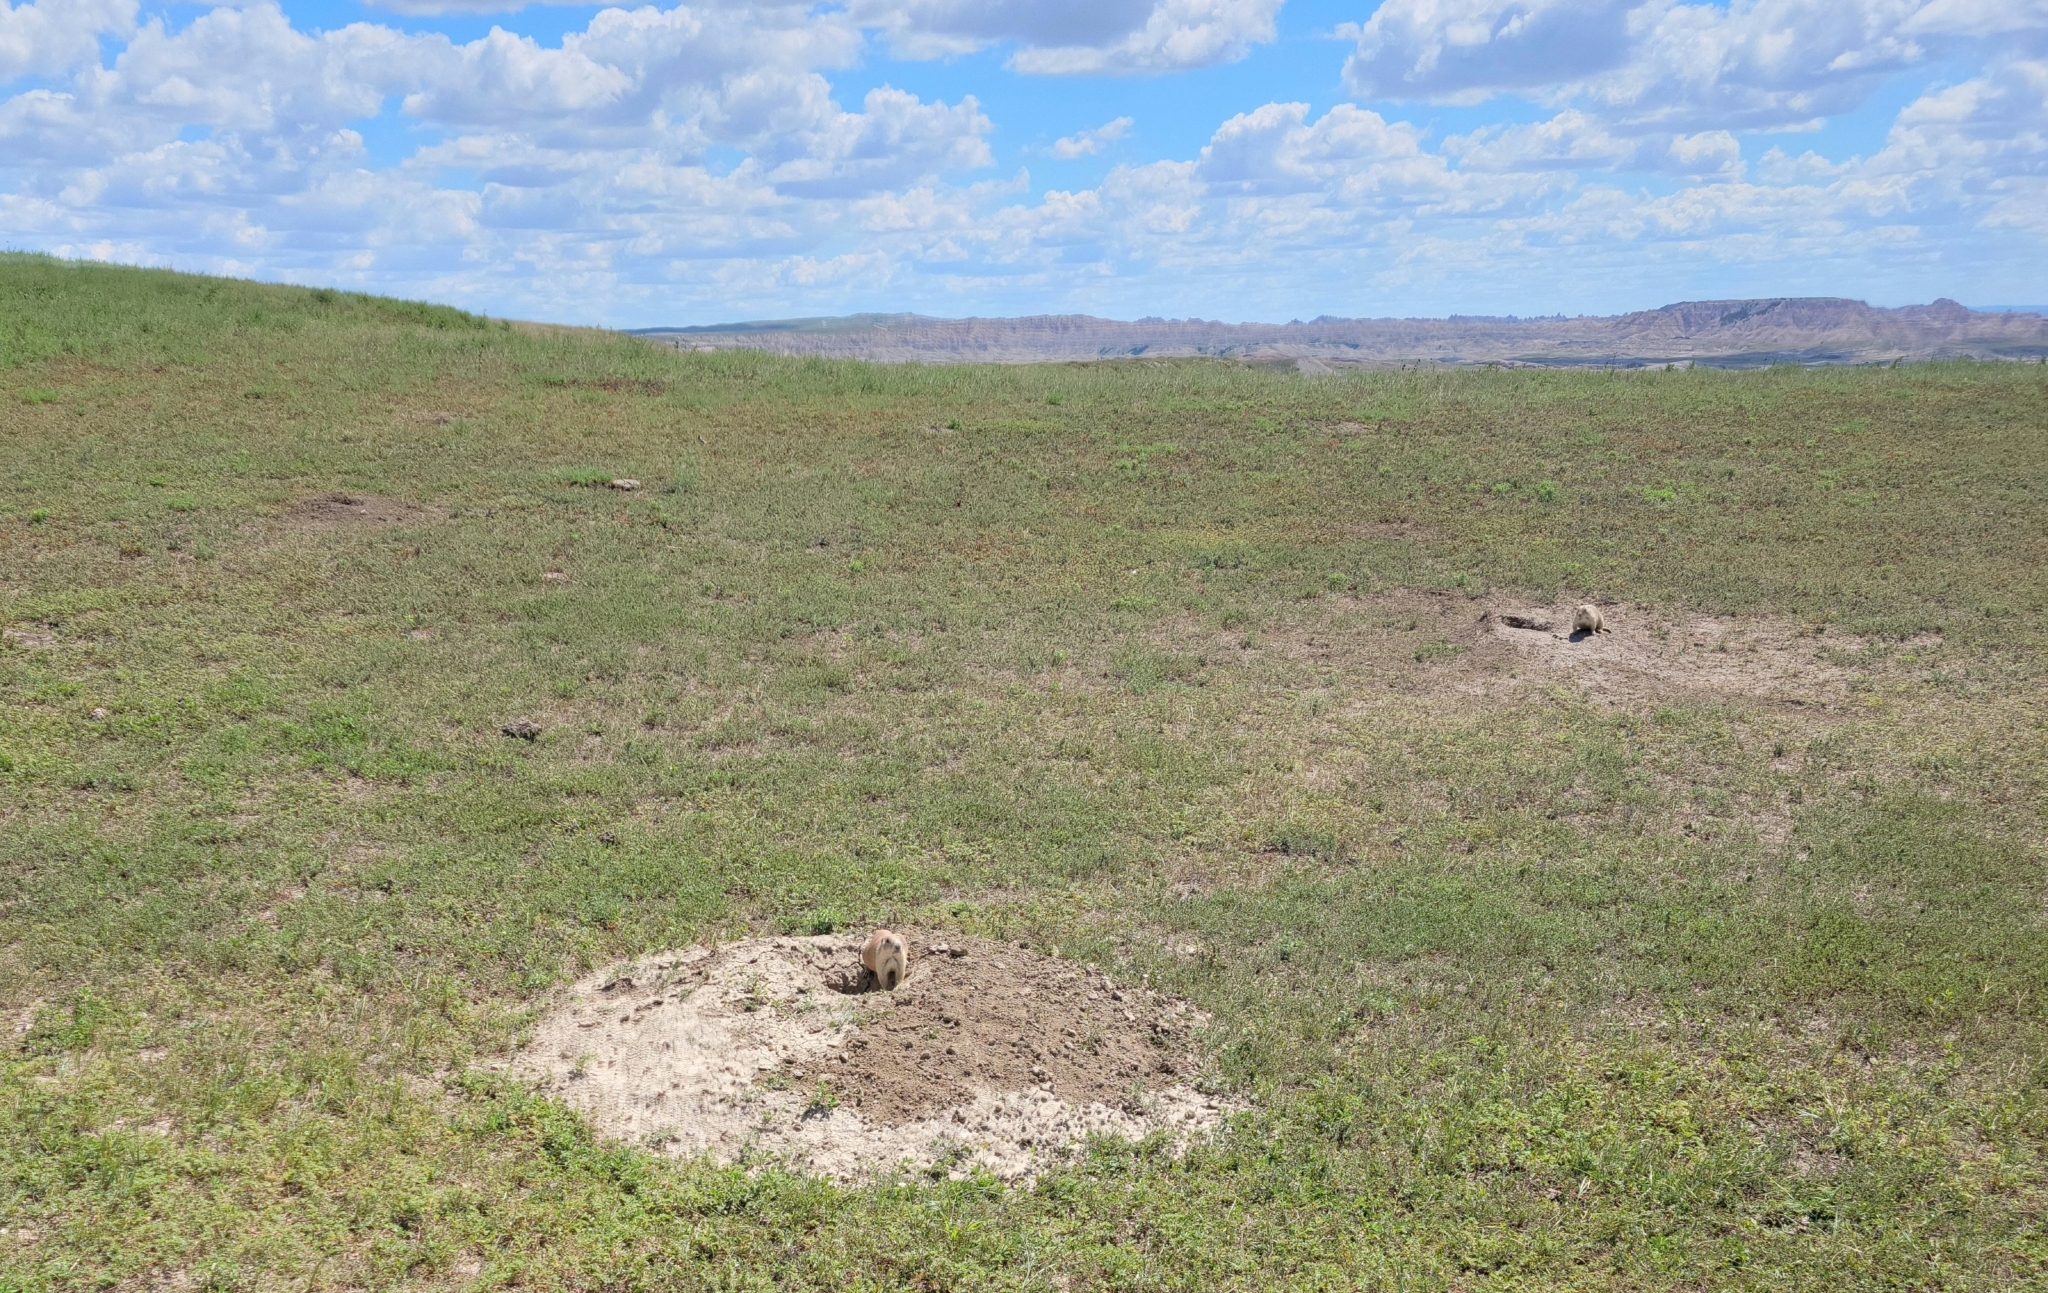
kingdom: Animalia
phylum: Chordata
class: Mammalia
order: Rodentia
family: Sciuridae
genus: Cynomys
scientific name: Cynomys ludovicianus
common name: Black-tailed prairie dog
